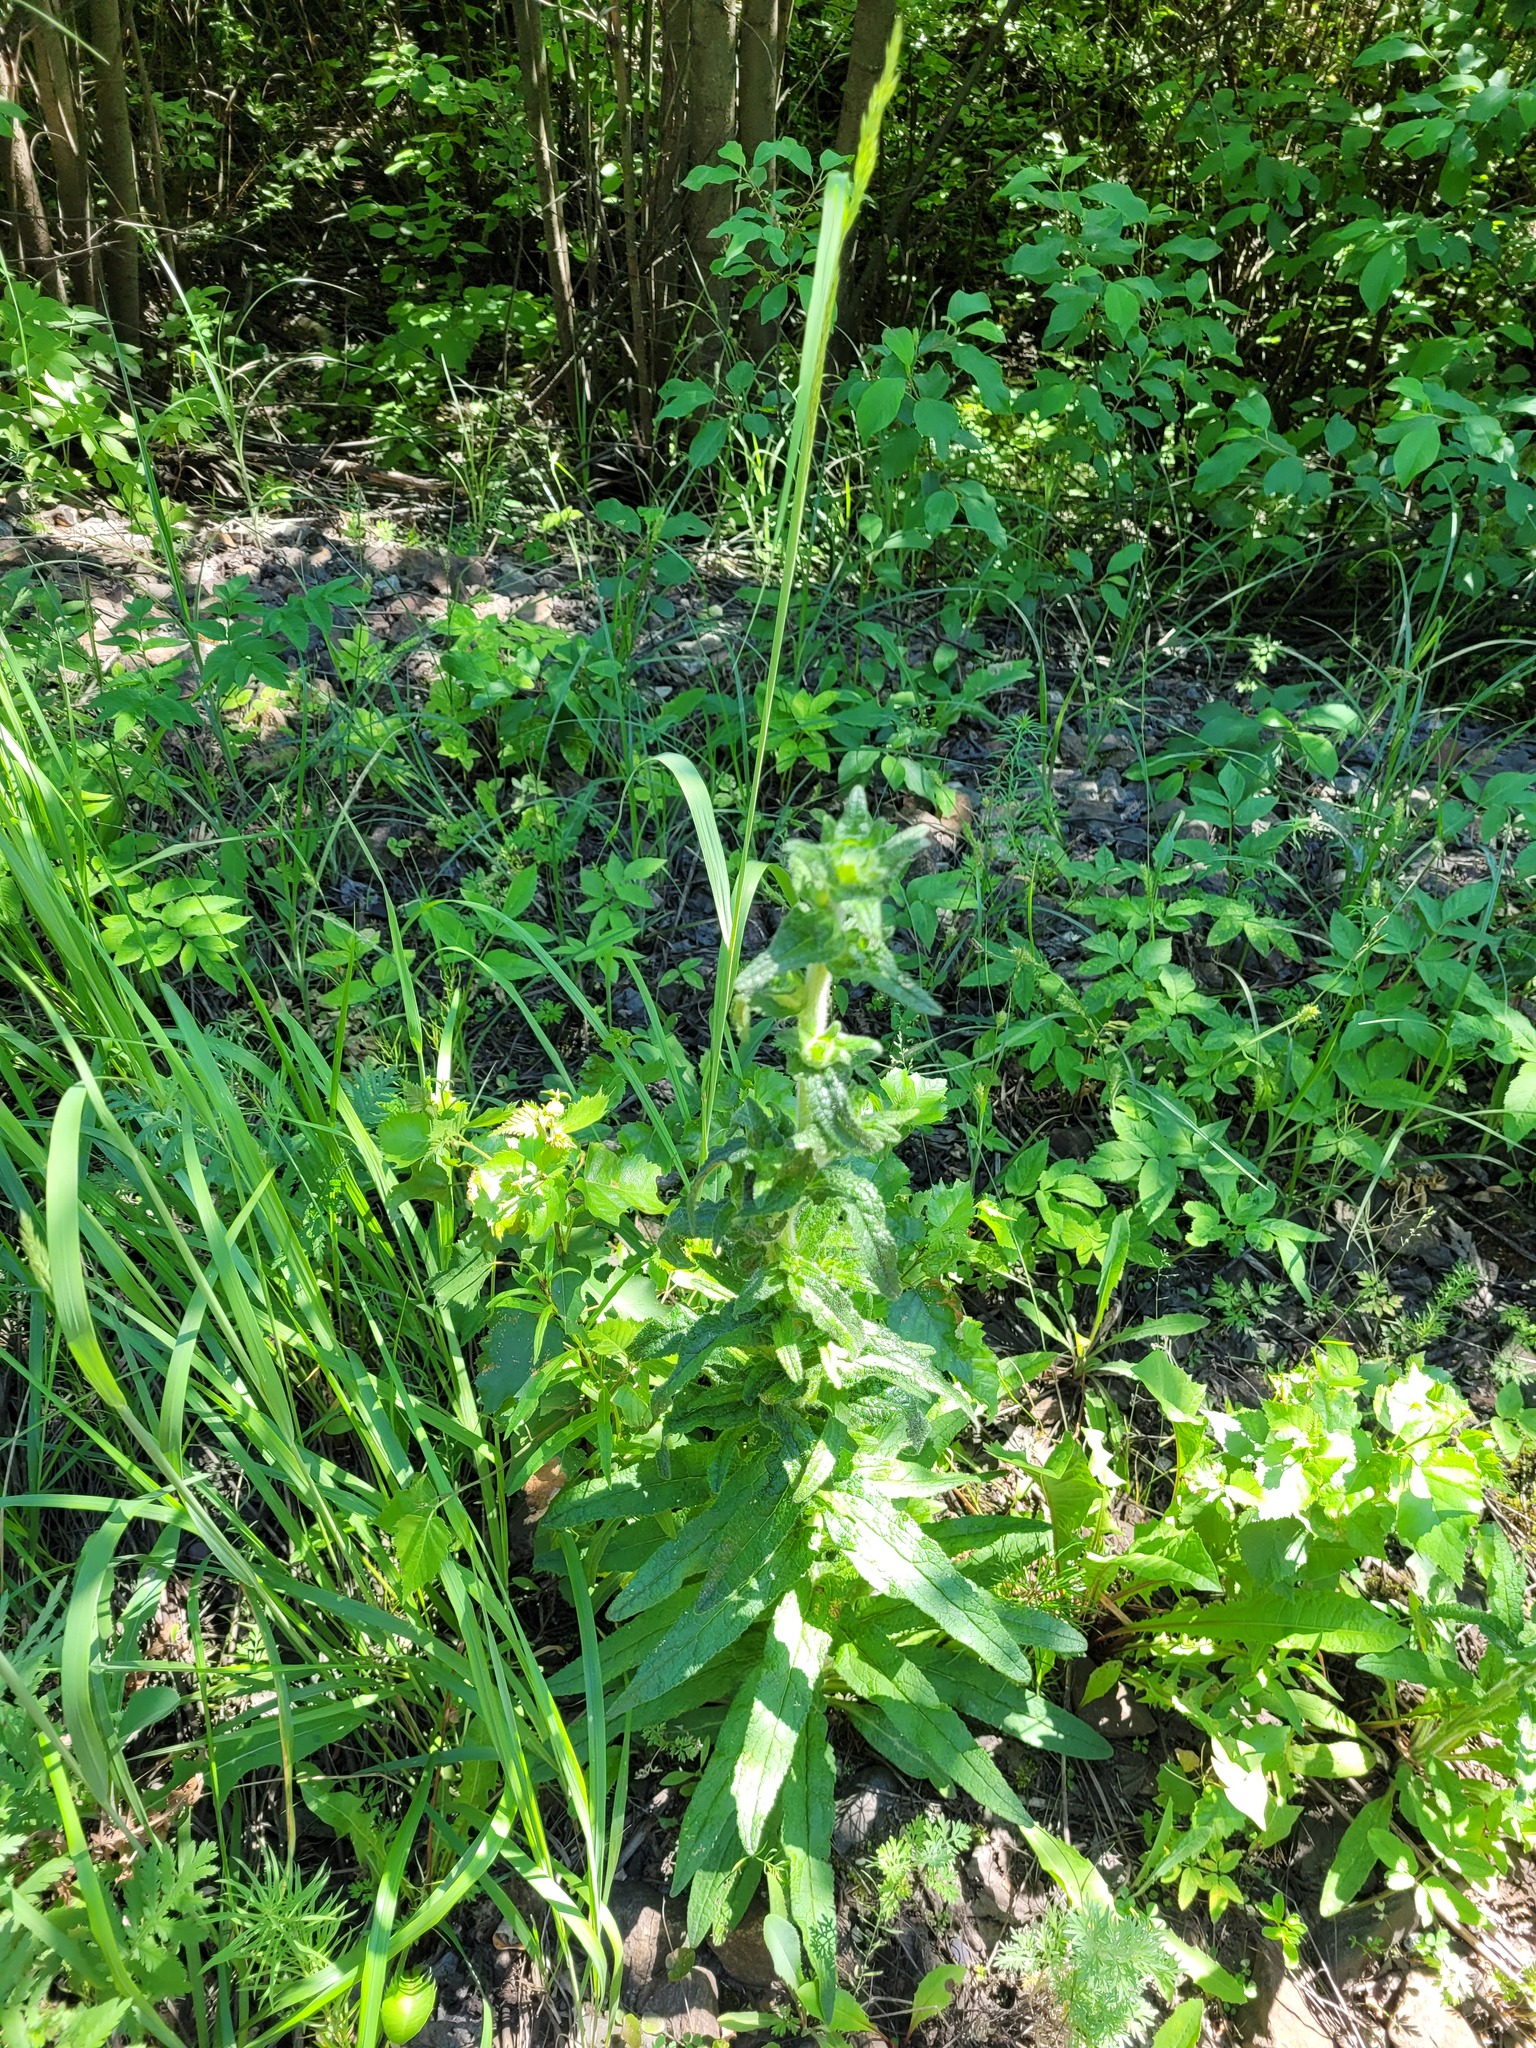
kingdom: Plantae
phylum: Tracheophyta
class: Magnoliopsida
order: Asterales
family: Campanulaceae
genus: Campanula
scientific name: Campanula cervicaria
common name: Bristly bellflower
